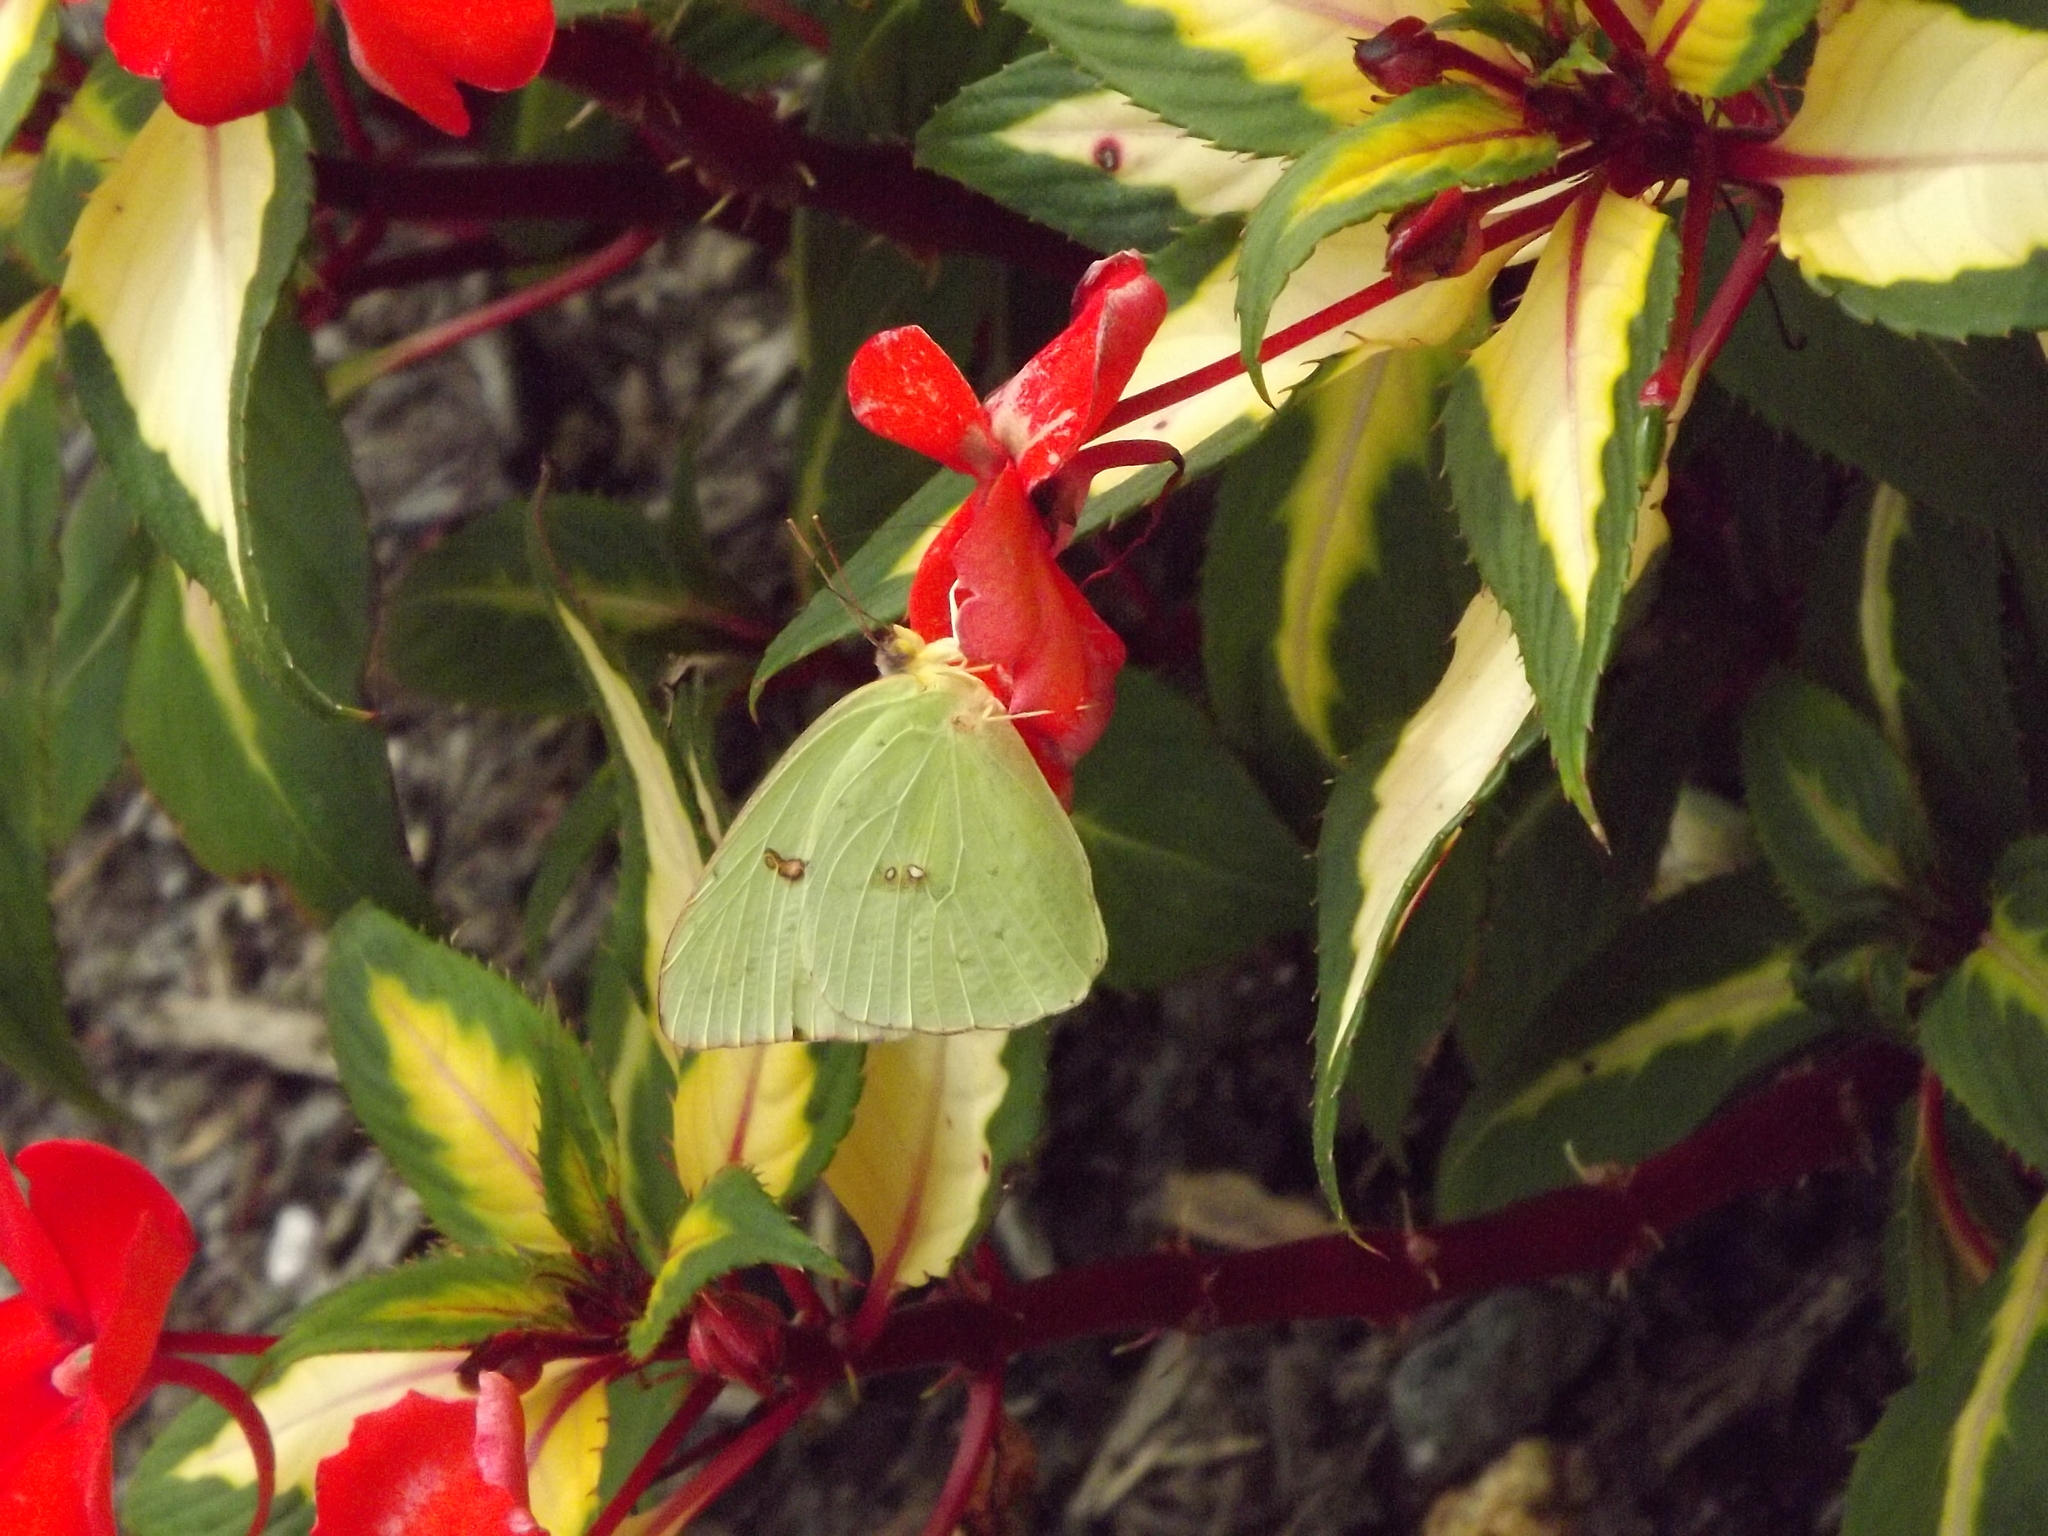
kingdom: Animalia
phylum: Arthropoda
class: Insecta
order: Lepidoptera
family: Pieridae
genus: Phoebis
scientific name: Phoebis sennae
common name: Cloudless sulphur
